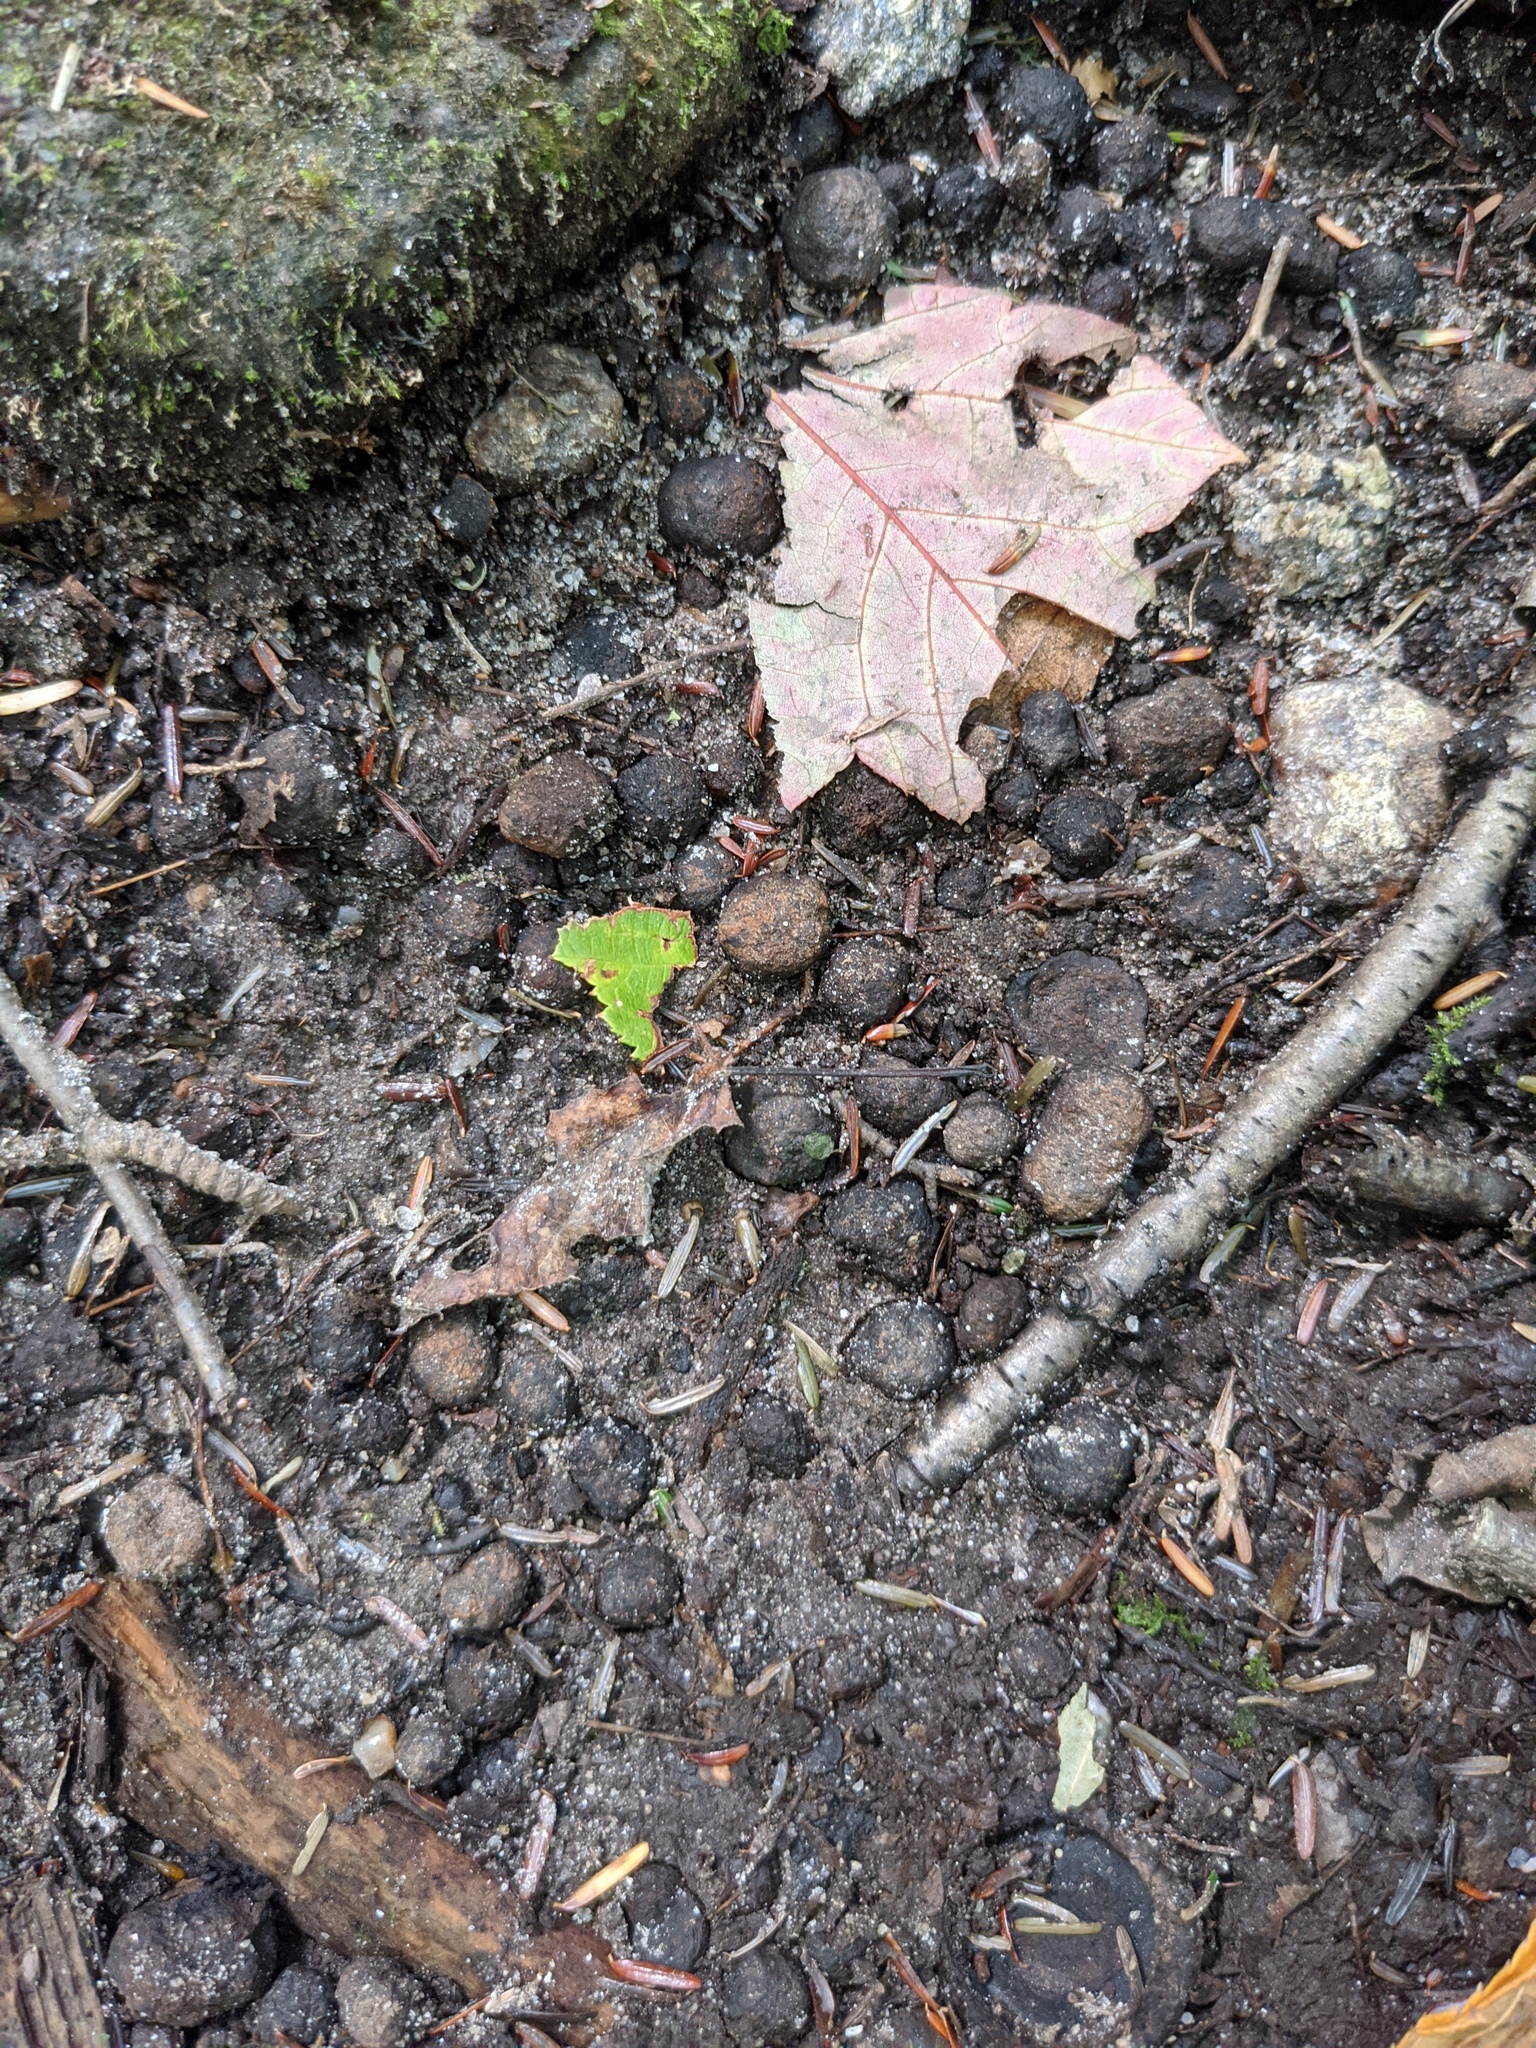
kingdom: Animalia
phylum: Chordata
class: Mammalia
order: Artiodactyla
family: Cervidae
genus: Odocoileus
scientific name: Odocoileus virginianus
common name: White-tailed deer
